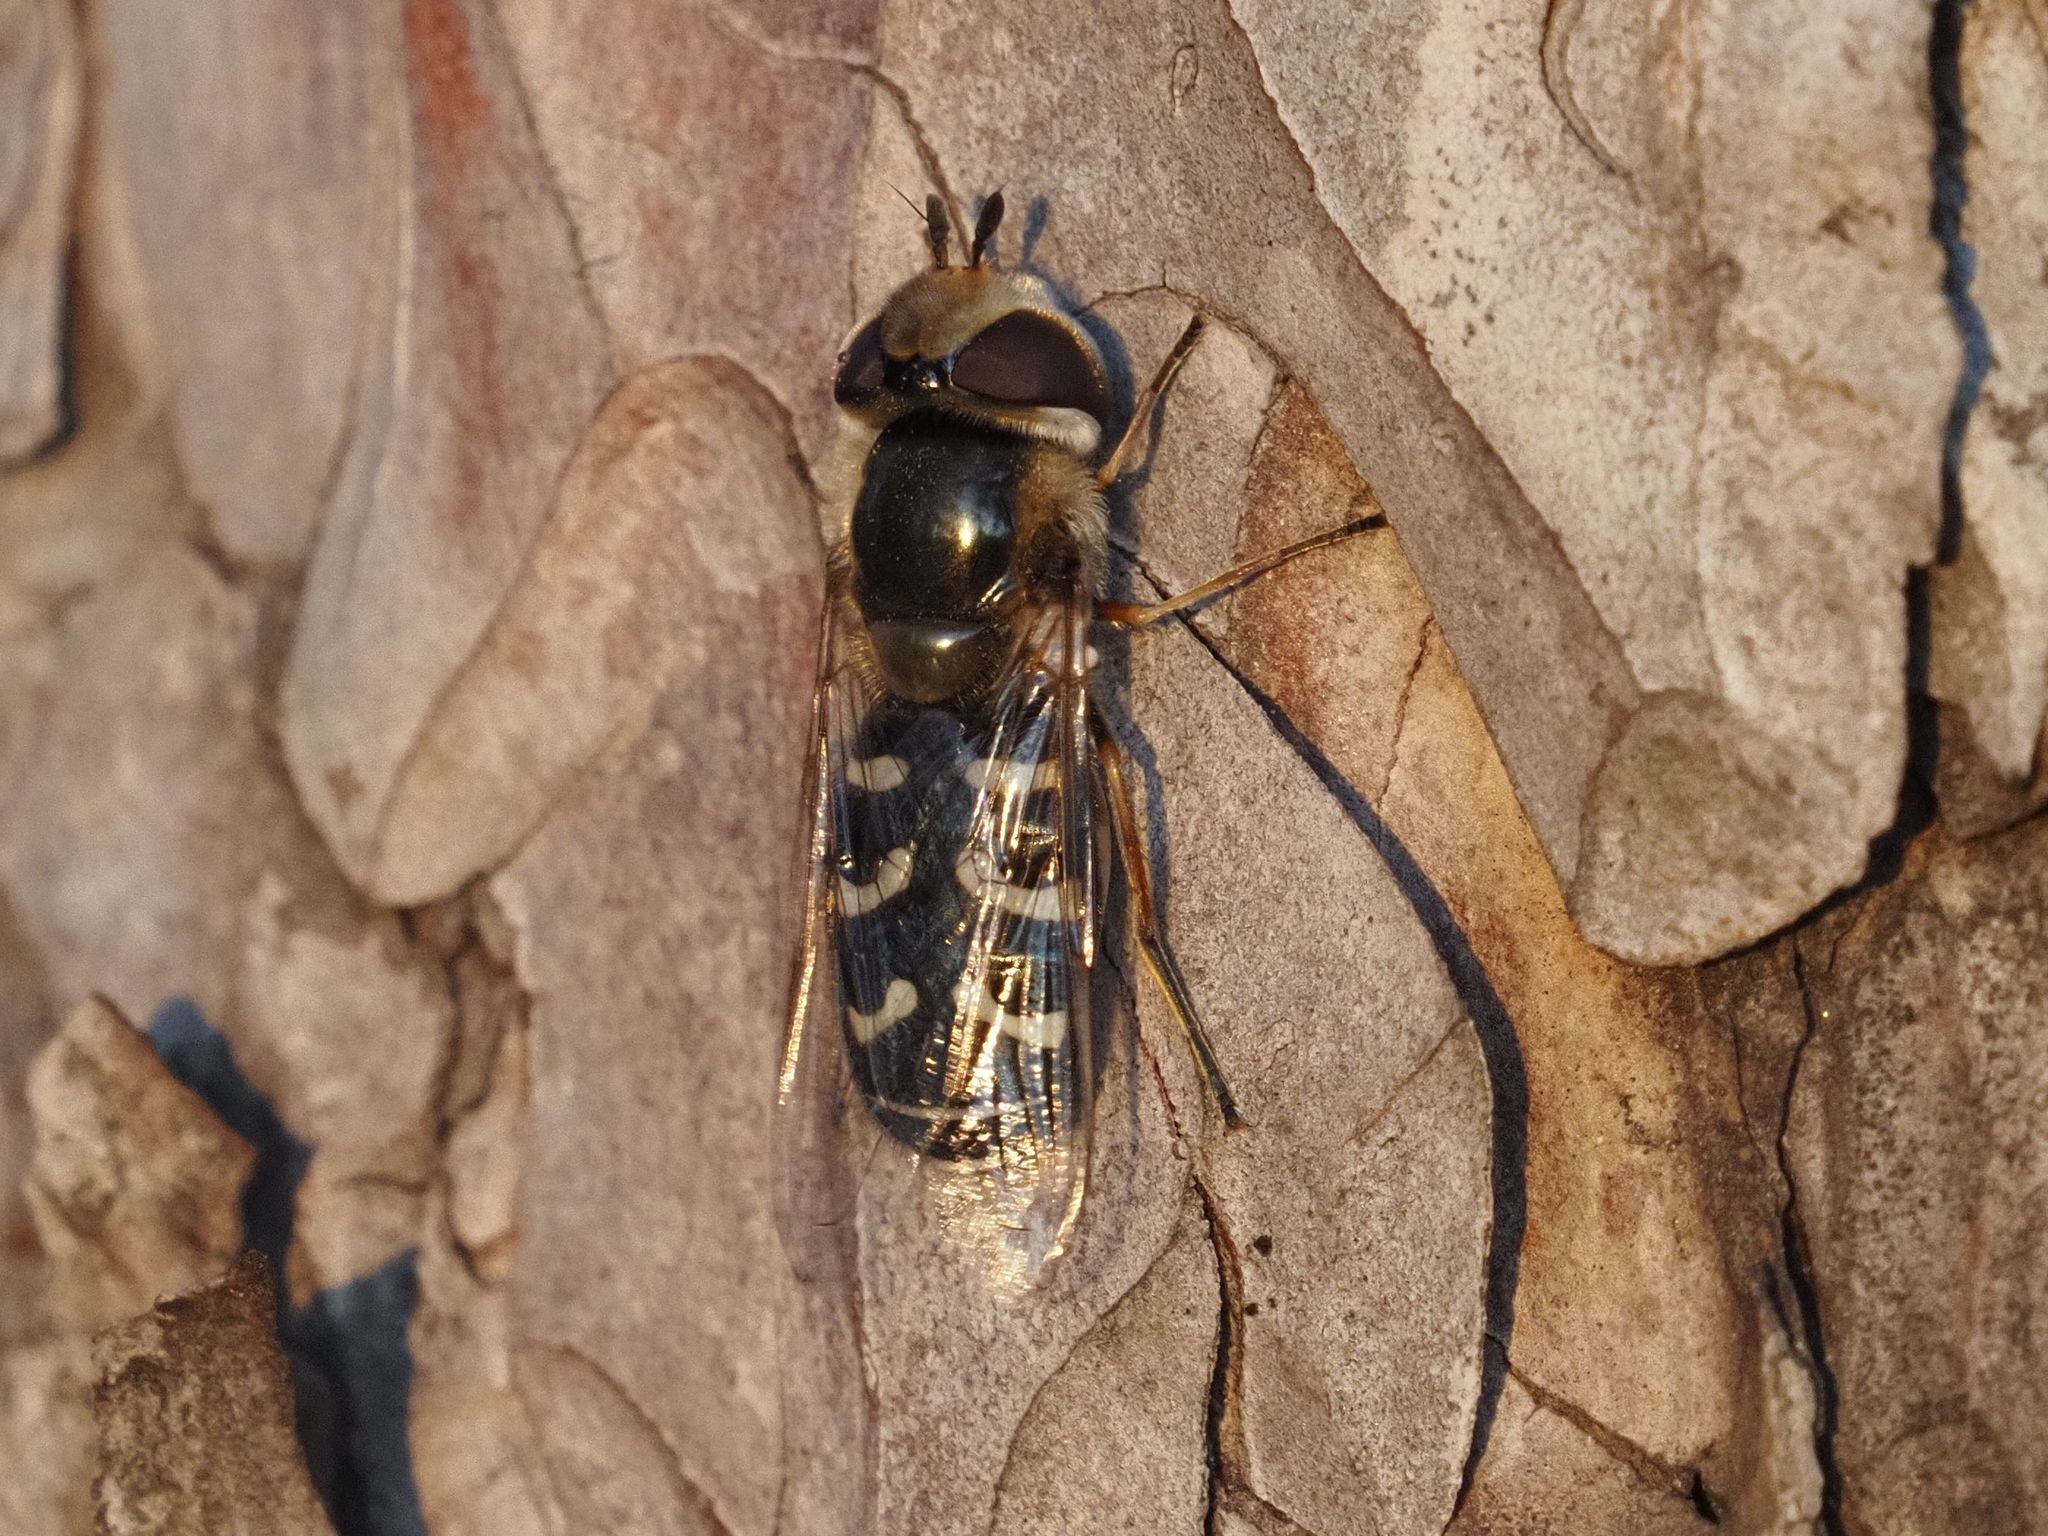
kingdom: Animalia
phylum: Arthropoda
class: Insecta
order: Diptera
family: Syrphidae
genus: Scaeva
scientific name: Scaeva pyrastri
